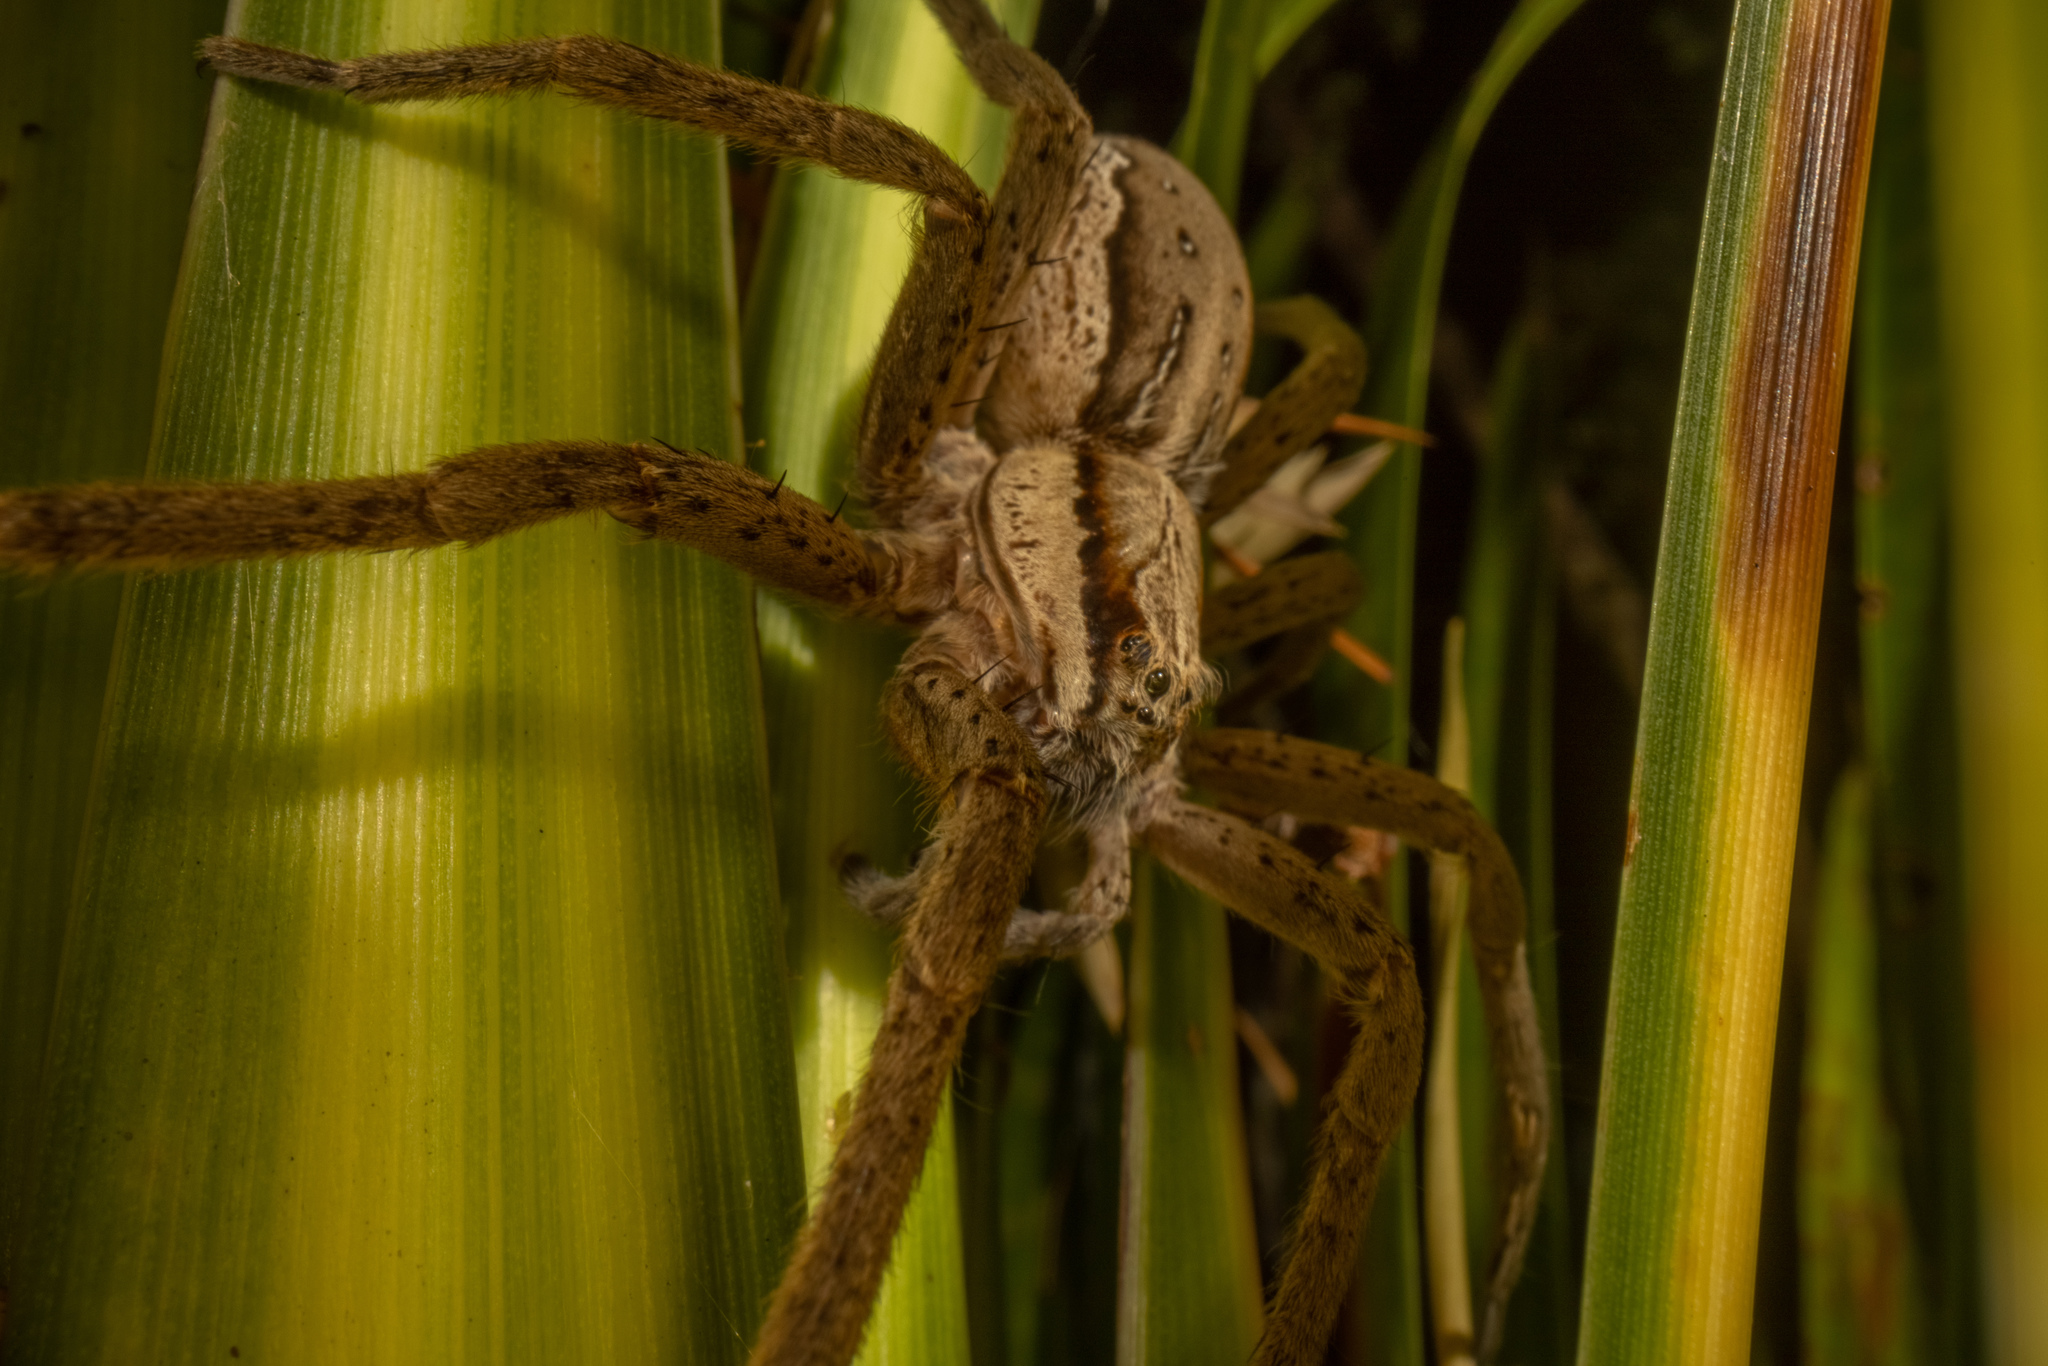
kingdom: Animalia
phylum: Arthropoda
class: Arachnida
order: Araneae
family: Pisauridae
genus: Dolomedes
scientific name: Dolomedes minor
